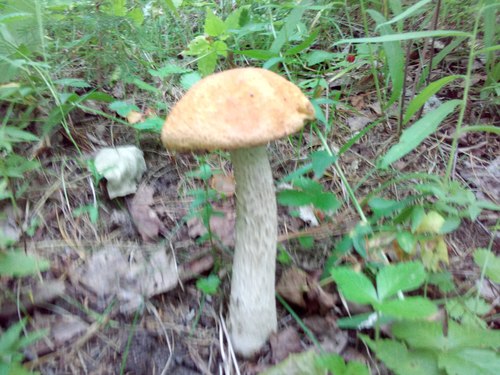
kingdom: Fungi
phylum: Basidiomycota
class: Agaricomycetes
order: Boletales
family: Boletaceae
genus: Leccinum
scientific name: Leccinum albostipitatum
